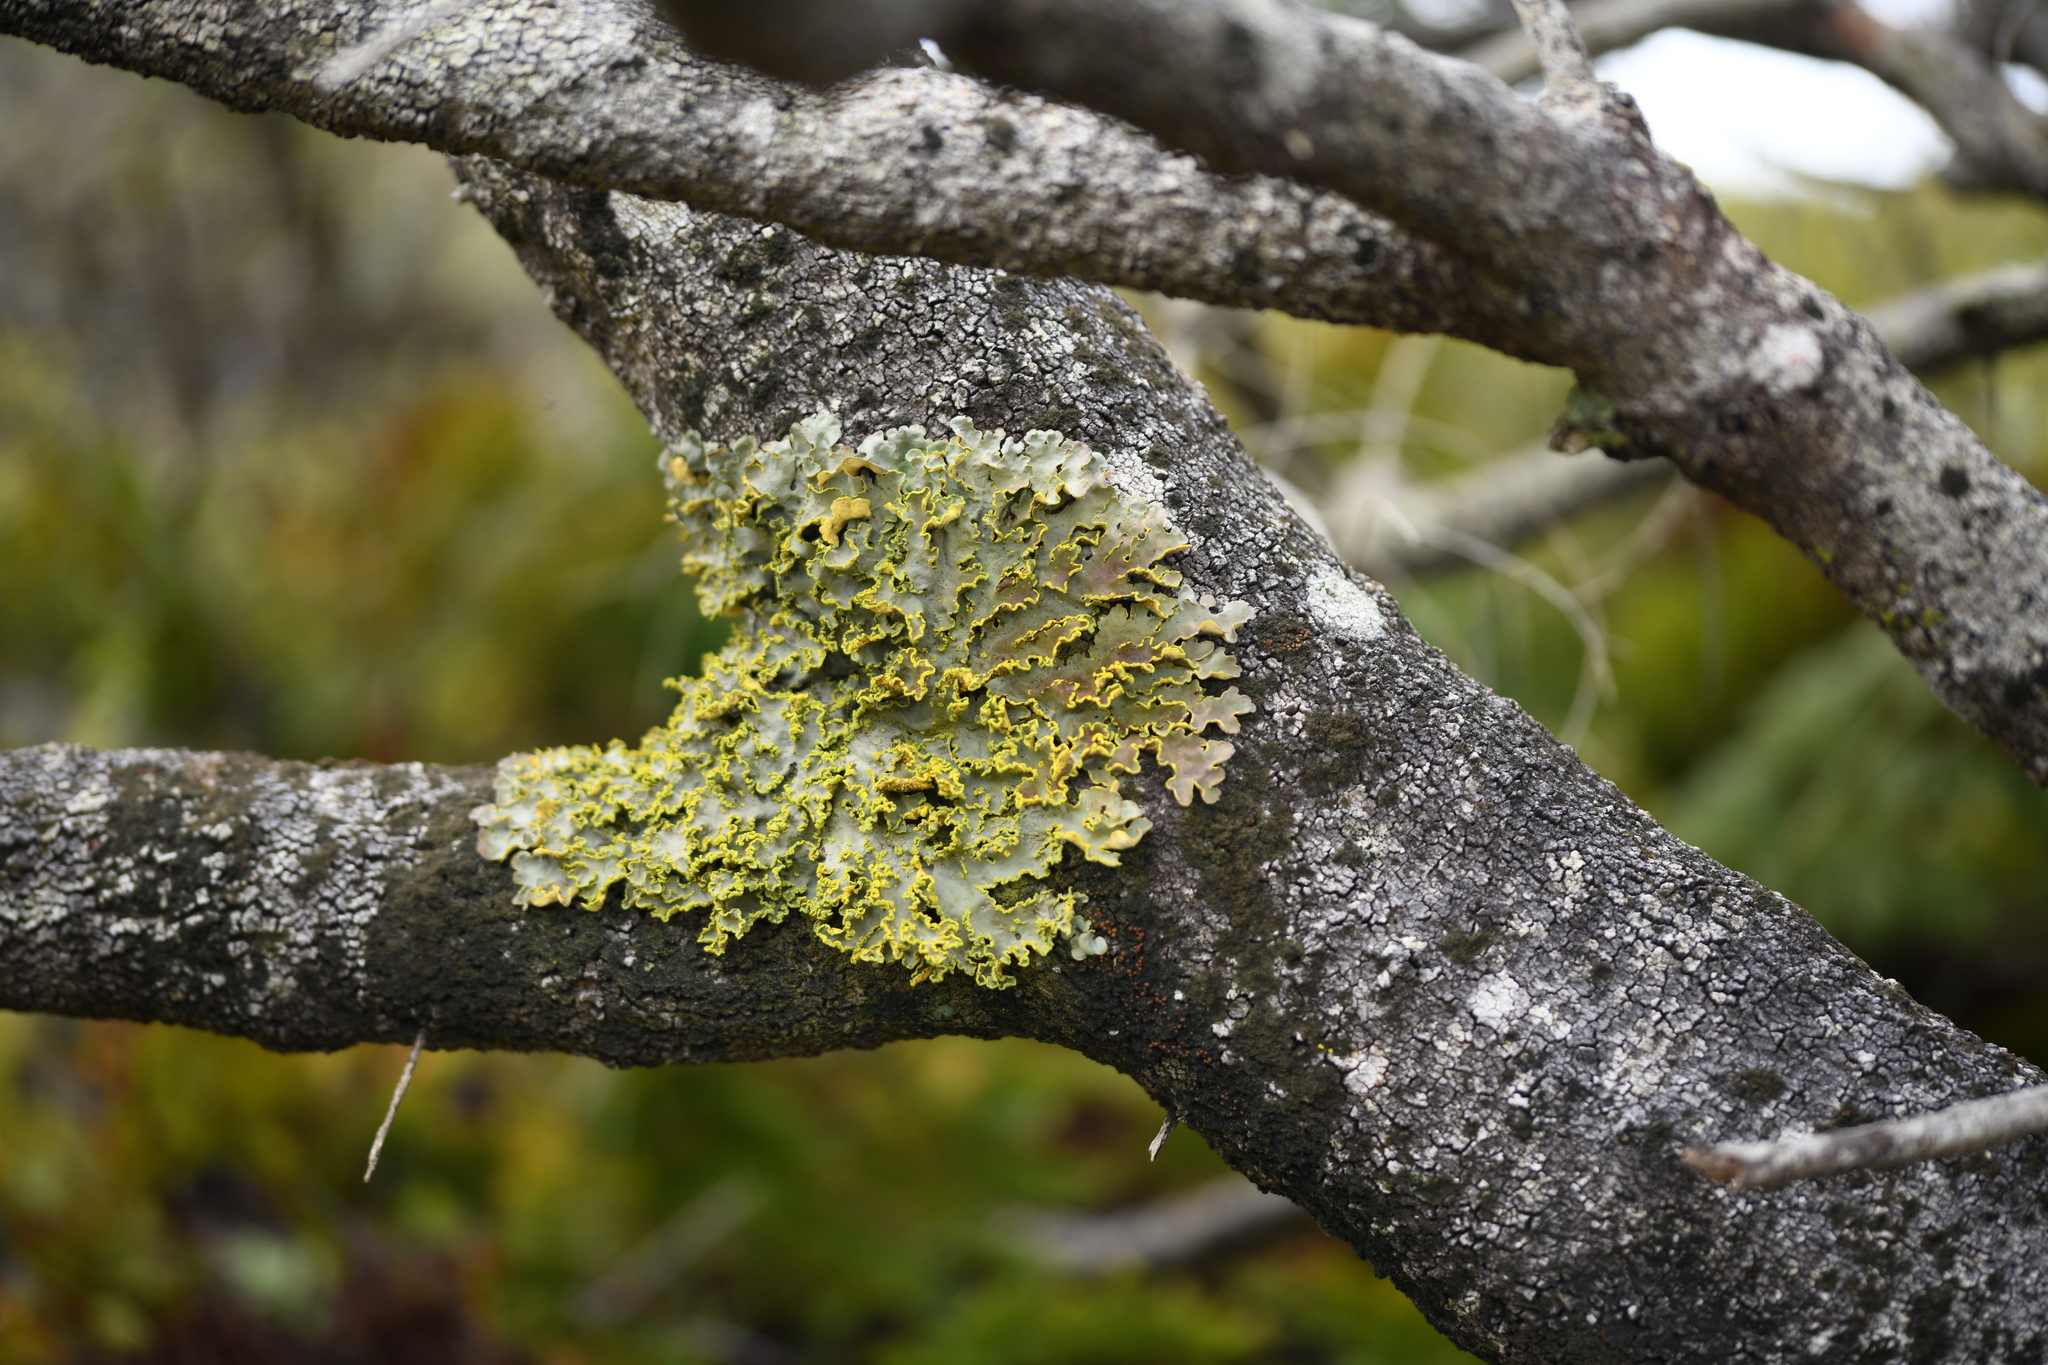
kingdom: Fungi
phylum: Ascomycota
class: Lecanoromycetes
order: Peltigerales
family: Lobariaceae
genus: Pseudocyphellaria
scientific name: Pseudocyphellaria aurata
